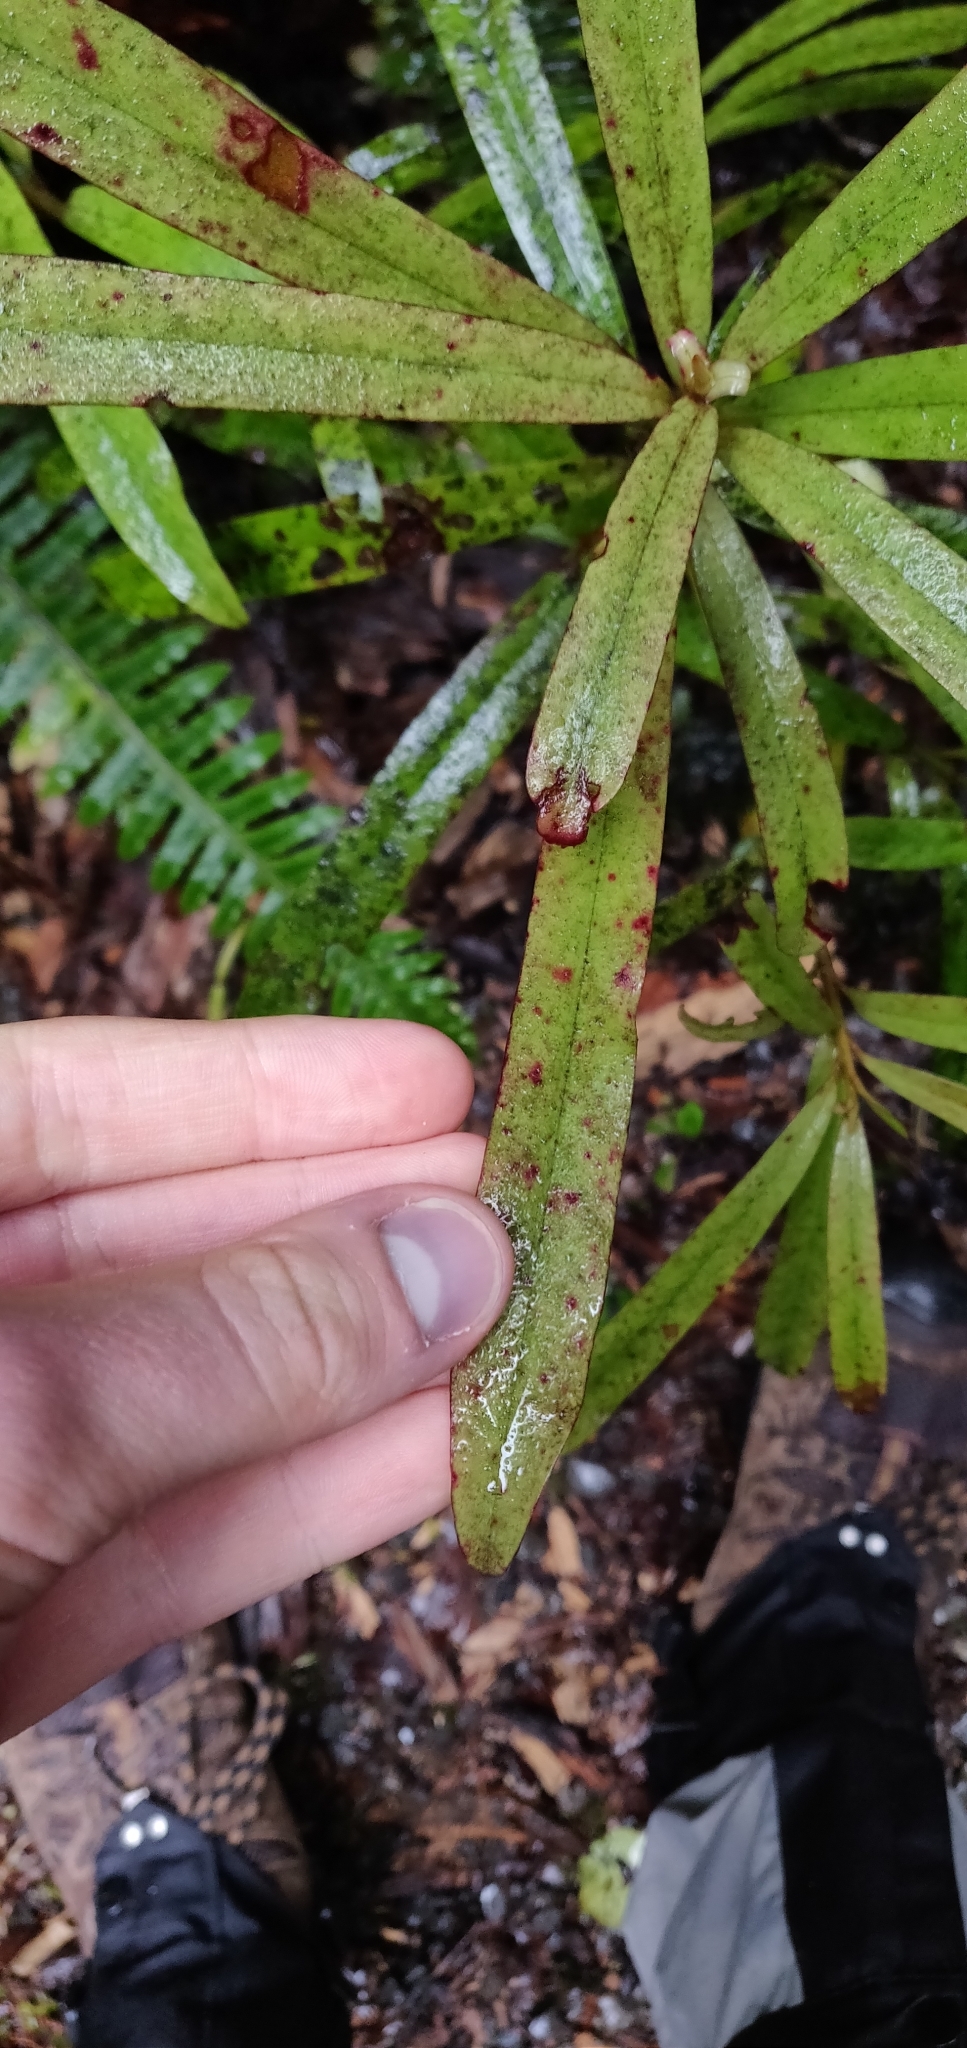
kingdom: Plantae
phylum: Tracheophyta
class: Magnoliopsida
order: Ericales
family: Primulaceae
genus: Myrsine
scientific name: Myrsine salicina
